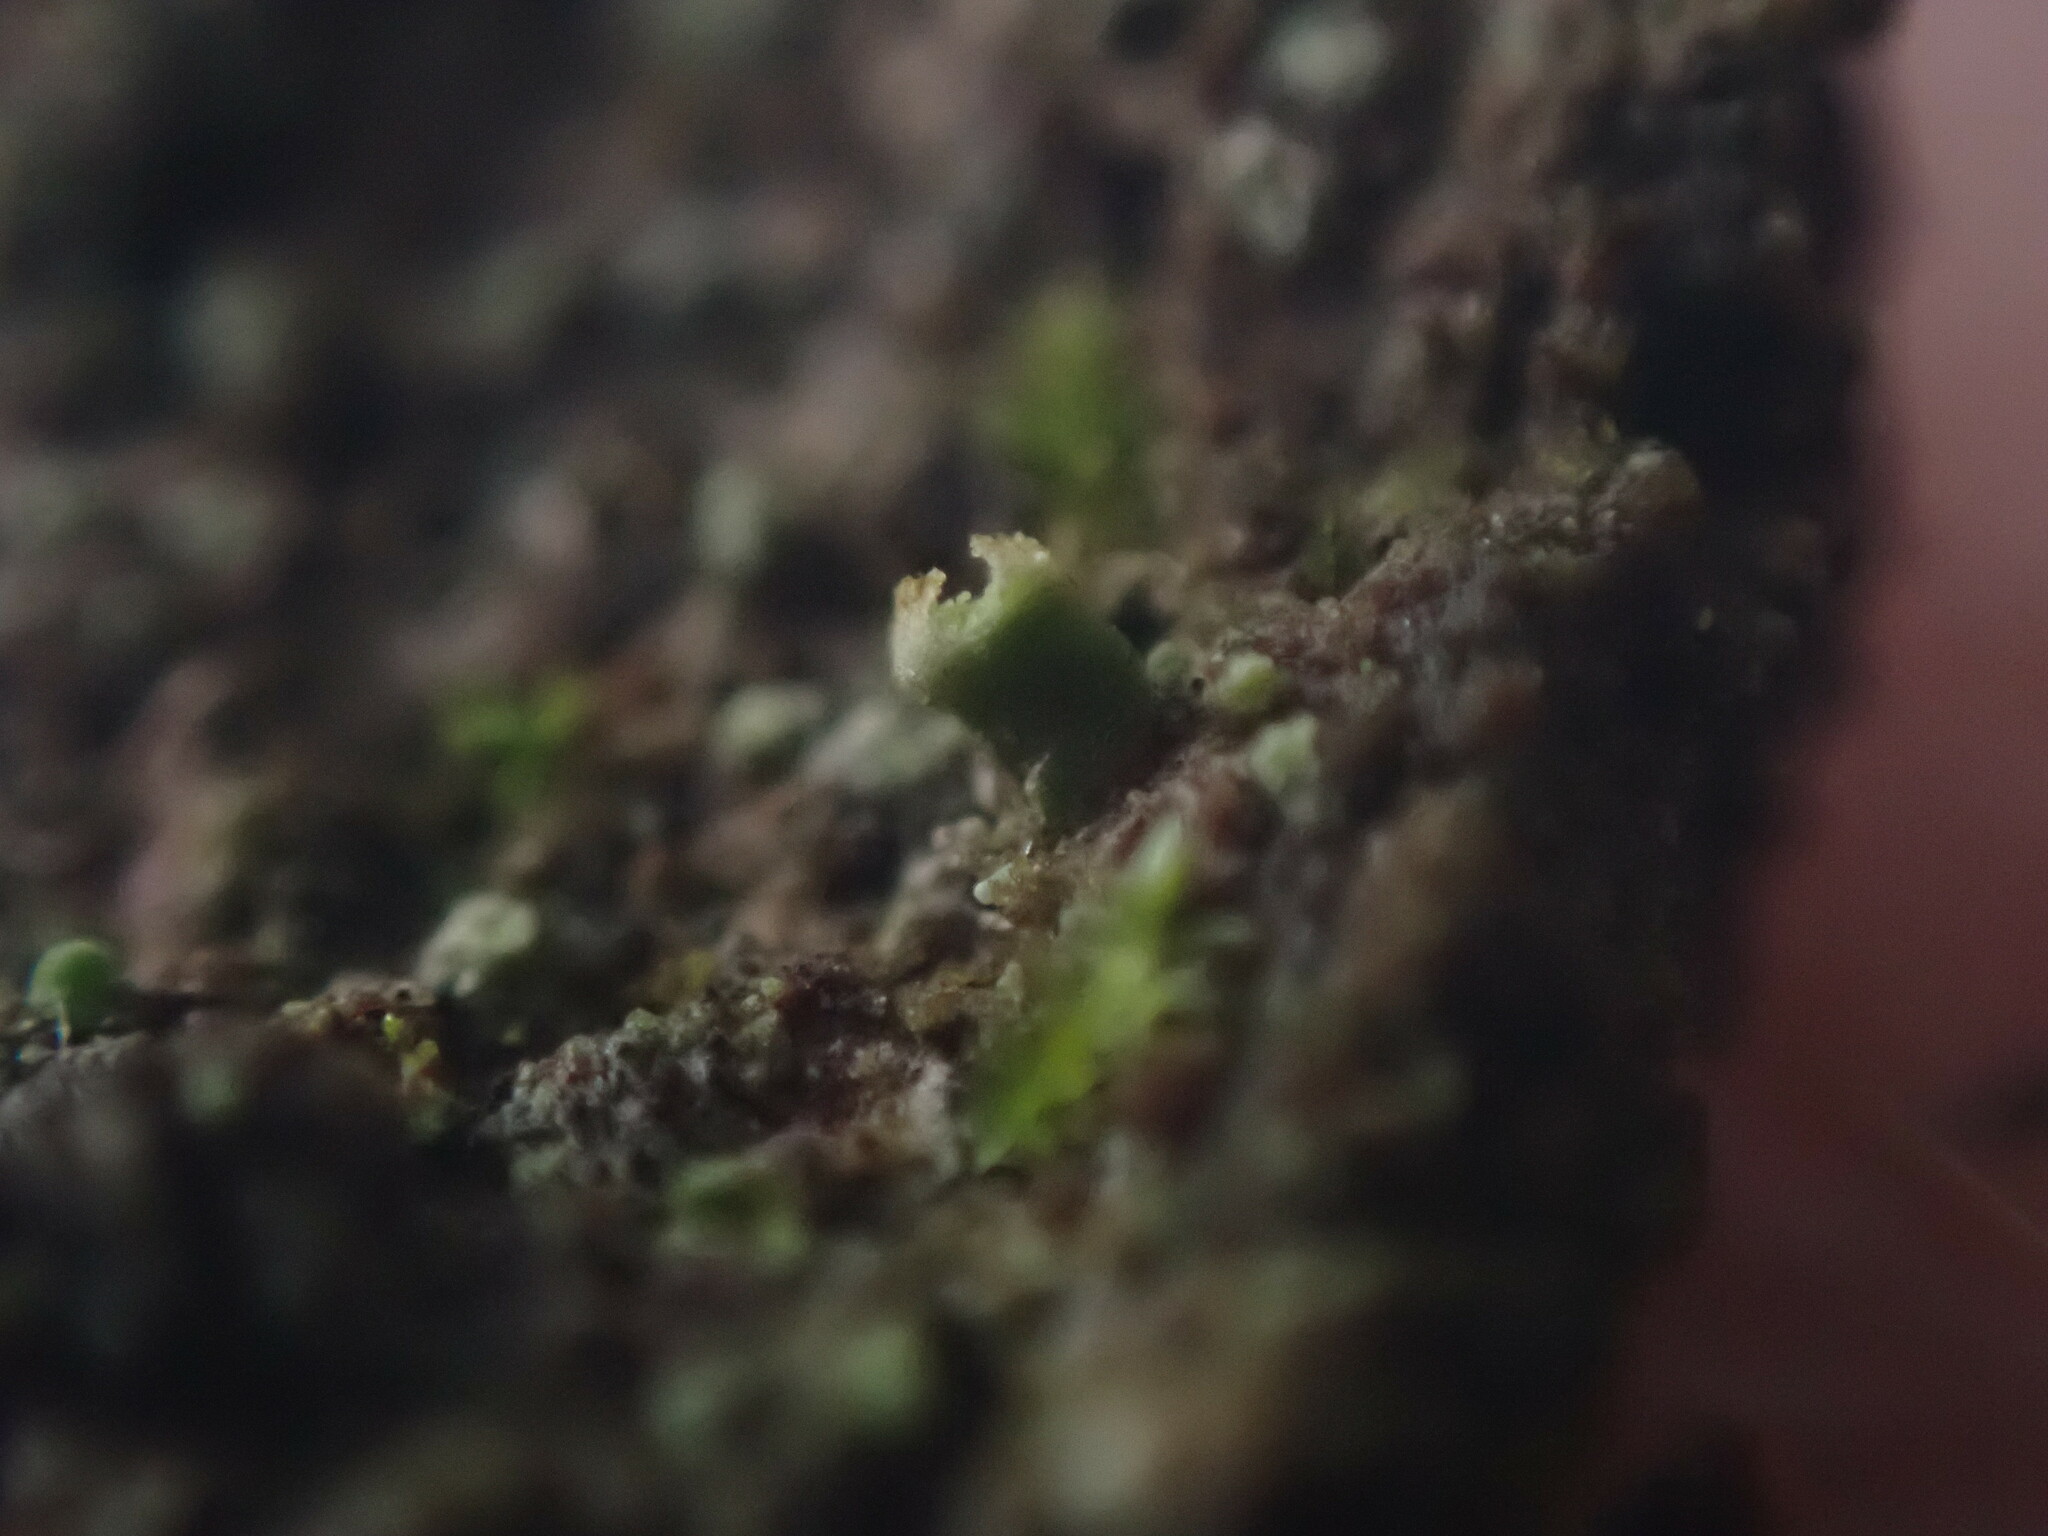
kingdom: Fungi
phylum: Ascomycota
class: Lecanoromycetes
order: Lecanorales
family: Ramalinaceae
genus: Waynea
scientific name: Waynea californica
